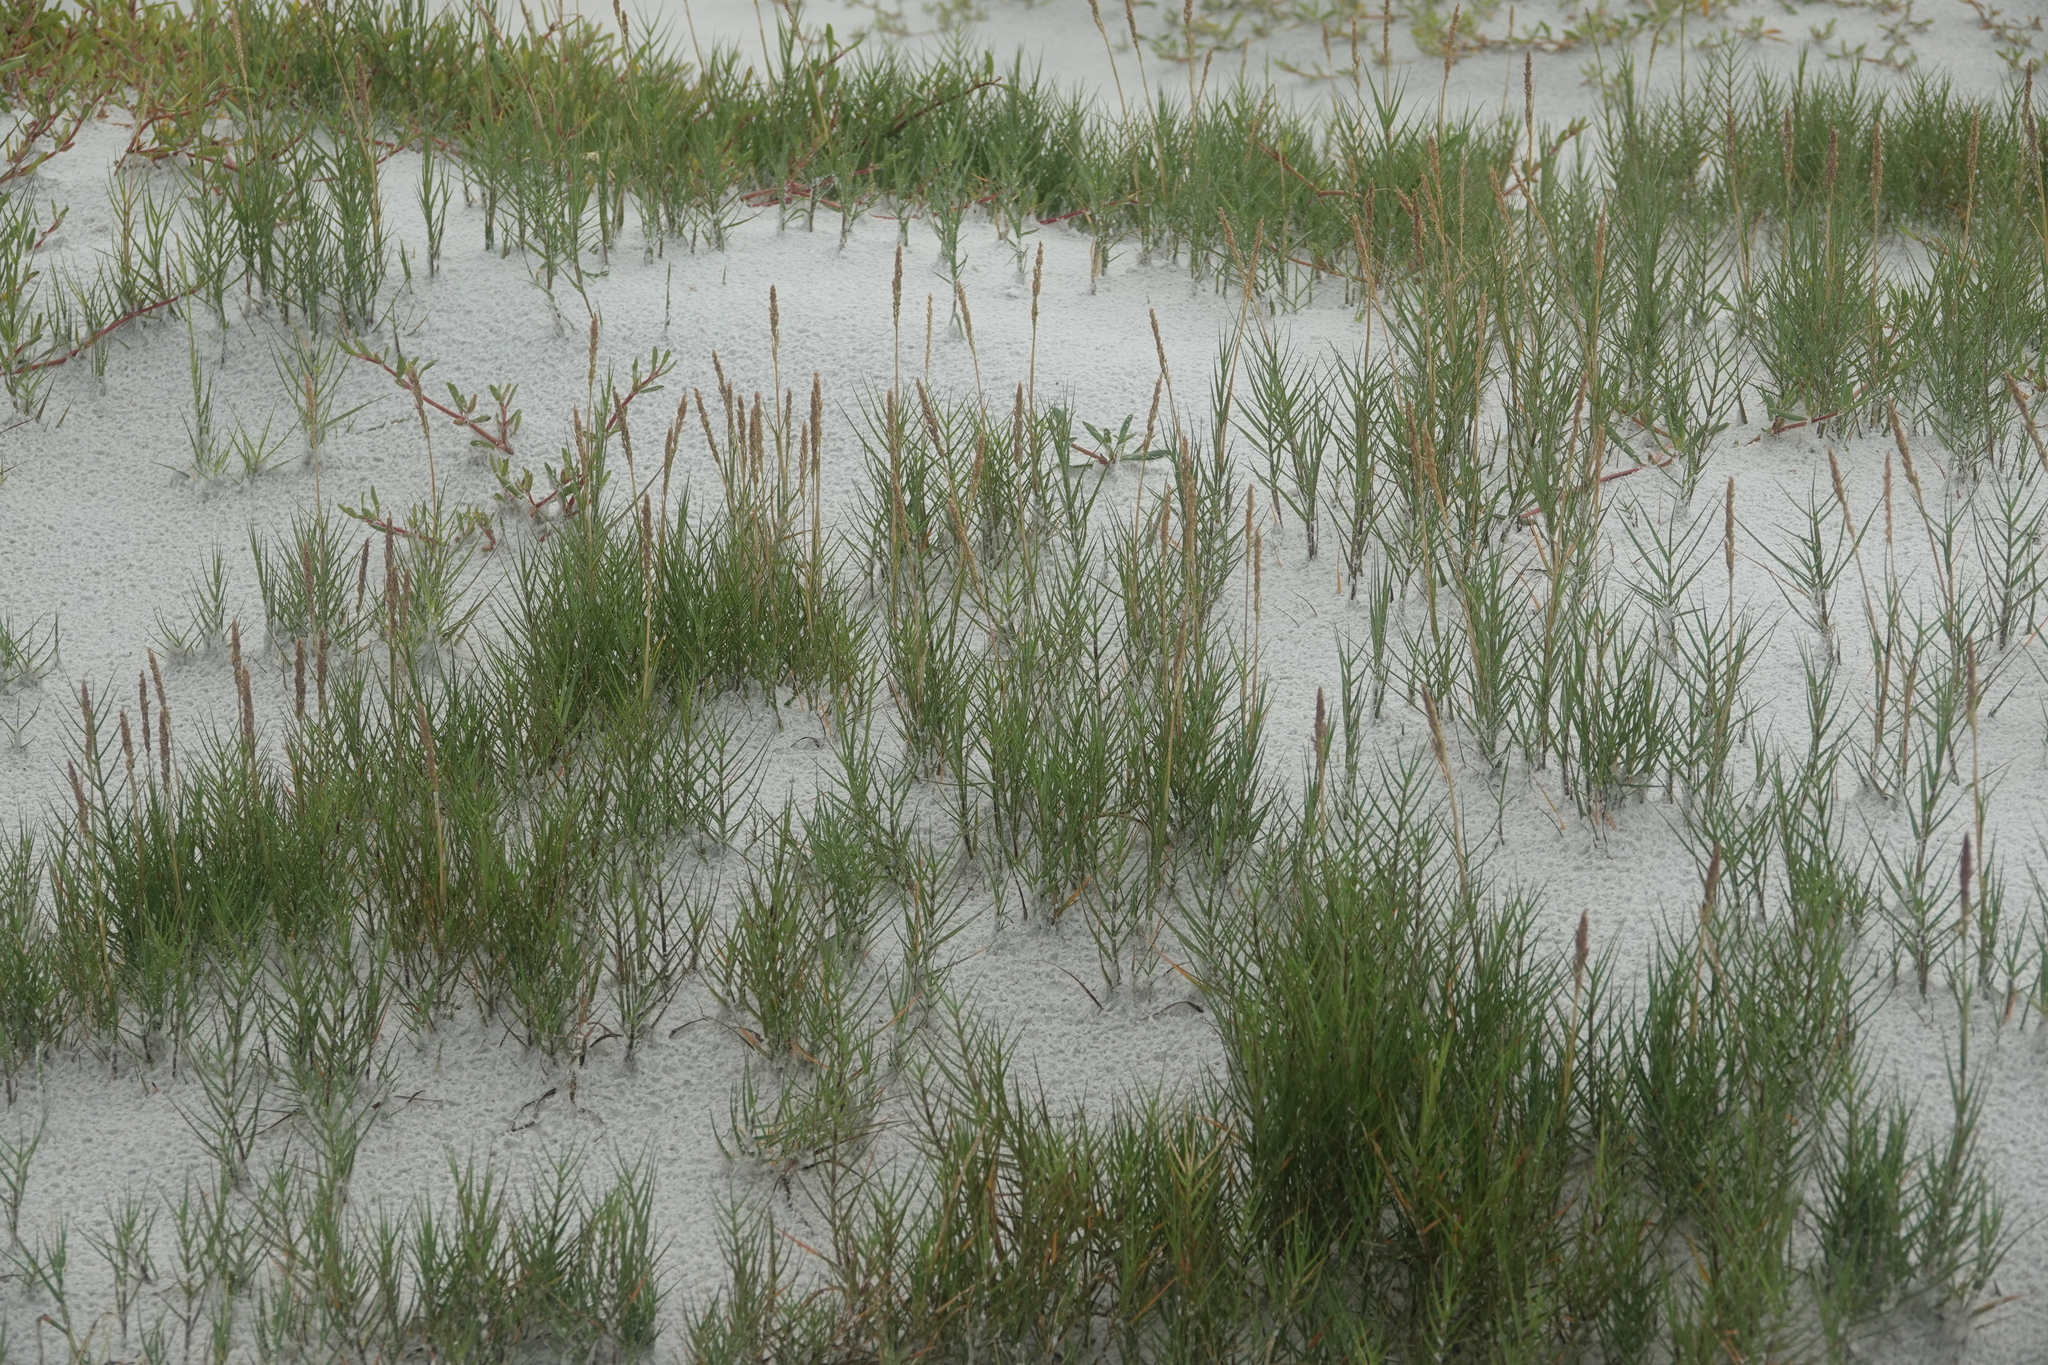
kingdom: Plantae
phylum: Tracheophyta
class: Liliopsida
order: Poales
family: Poaceae
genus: Sporobolus
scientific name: Sporobolus virginicus
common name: Beach dropseed
